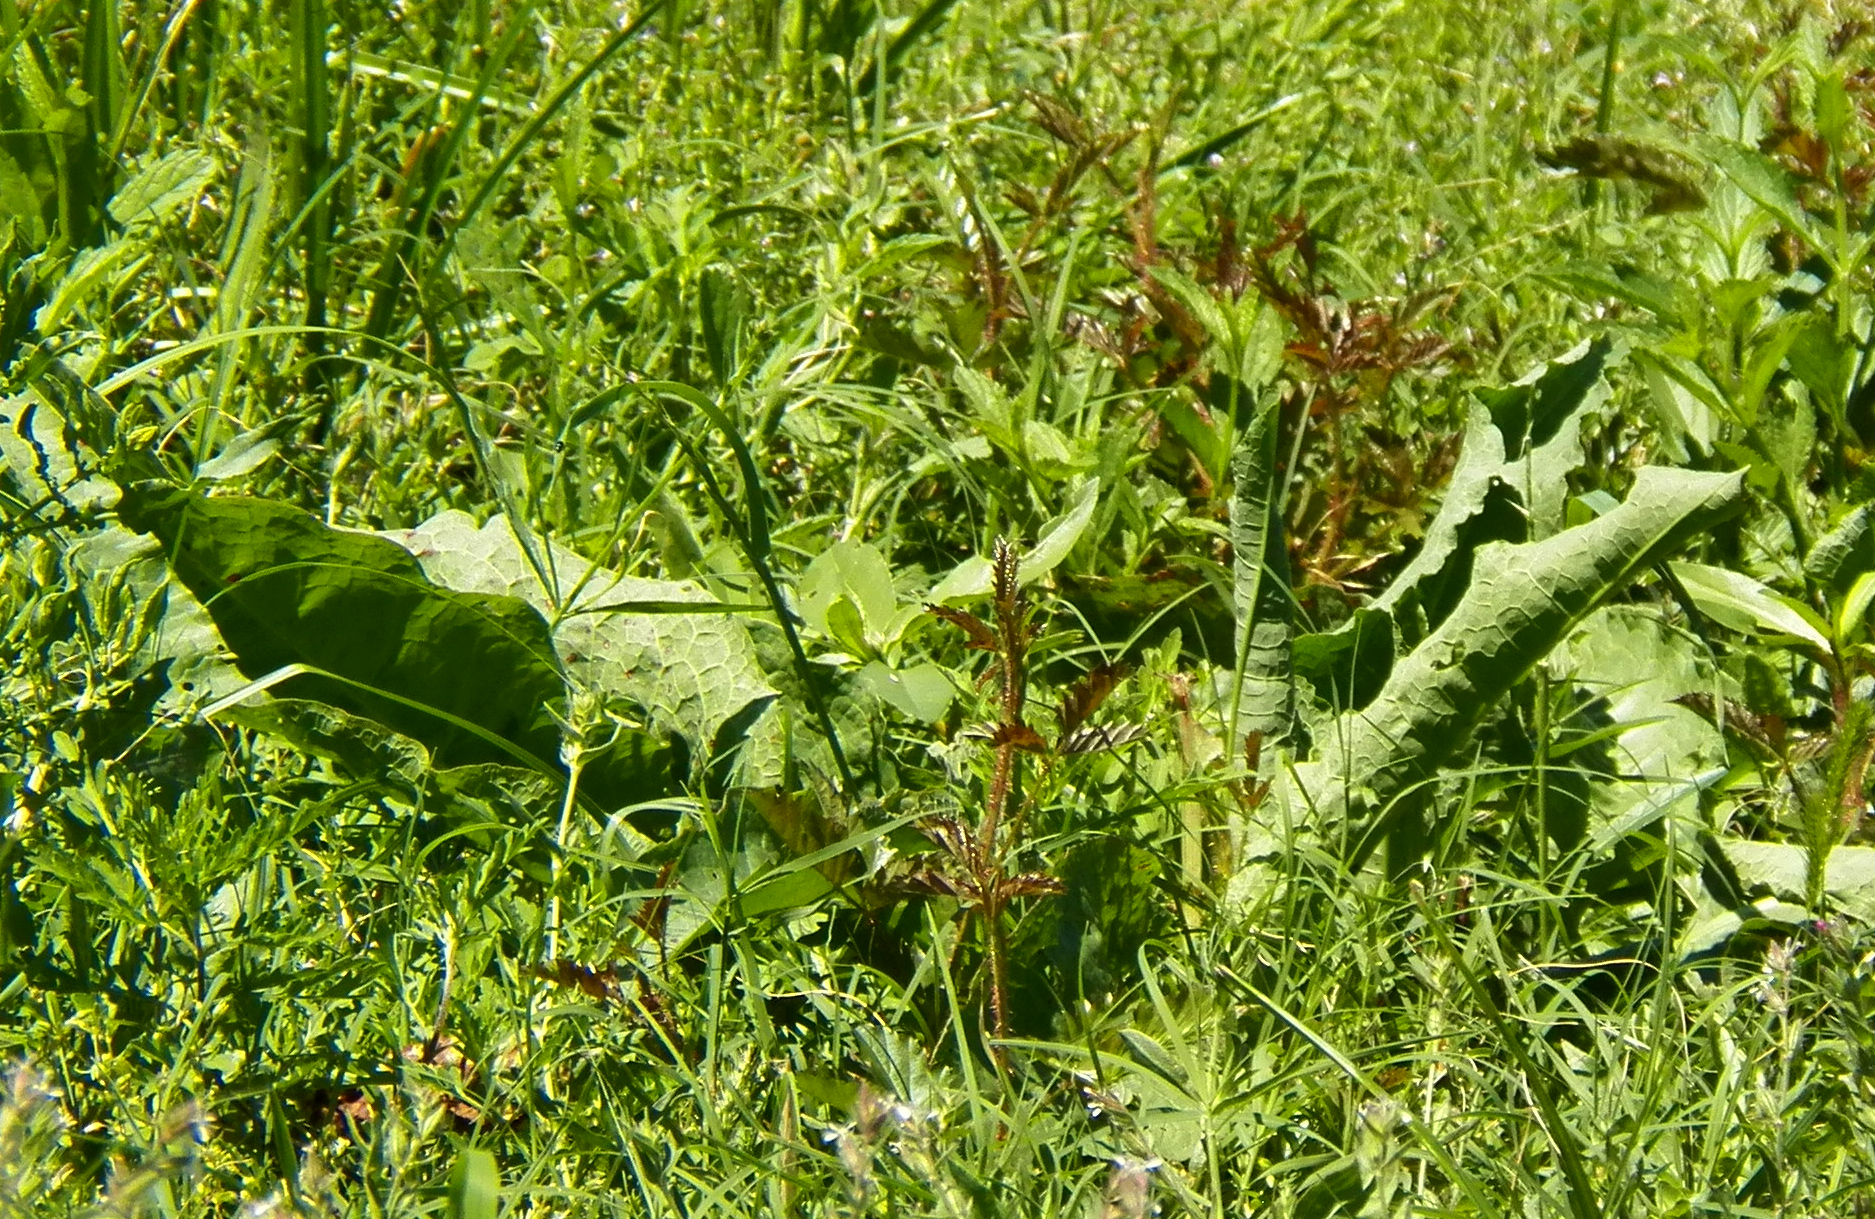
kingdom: Plantae
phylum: Tracheophyta
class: Magnoliopsida
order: Caryophyllales
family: Polygonaceae
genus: Rumex
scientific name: Rumex crispus
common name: Curled dock
